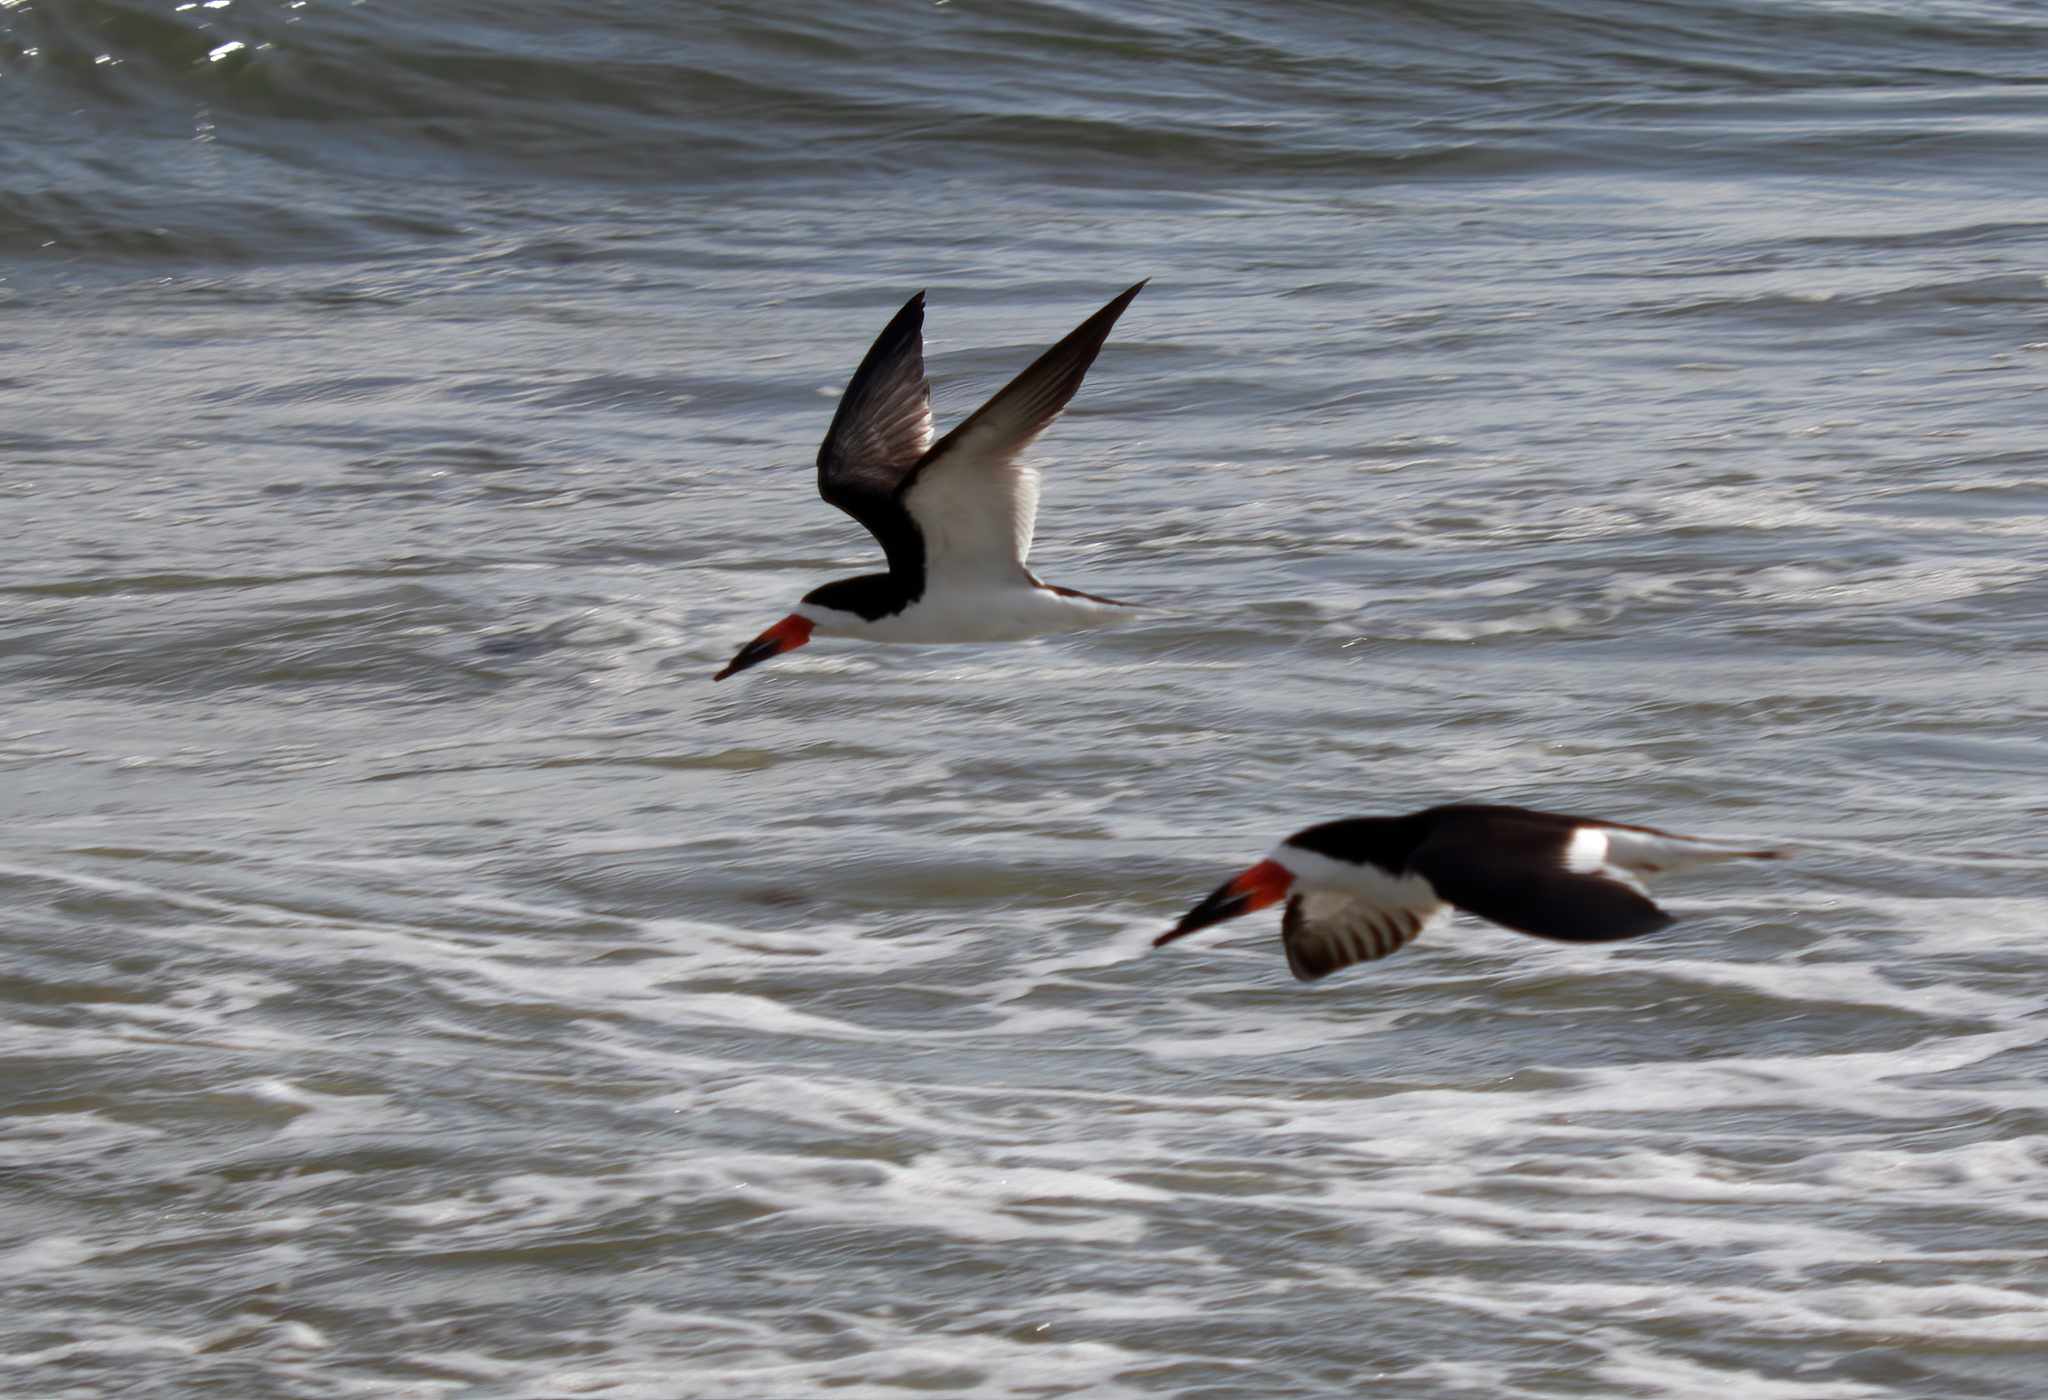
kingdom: Animalia
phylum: Chordata
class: Aves
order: Charadriiformes
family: Laridae
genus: Rynchops
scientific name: Rynchops niger
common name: Black skimmer
